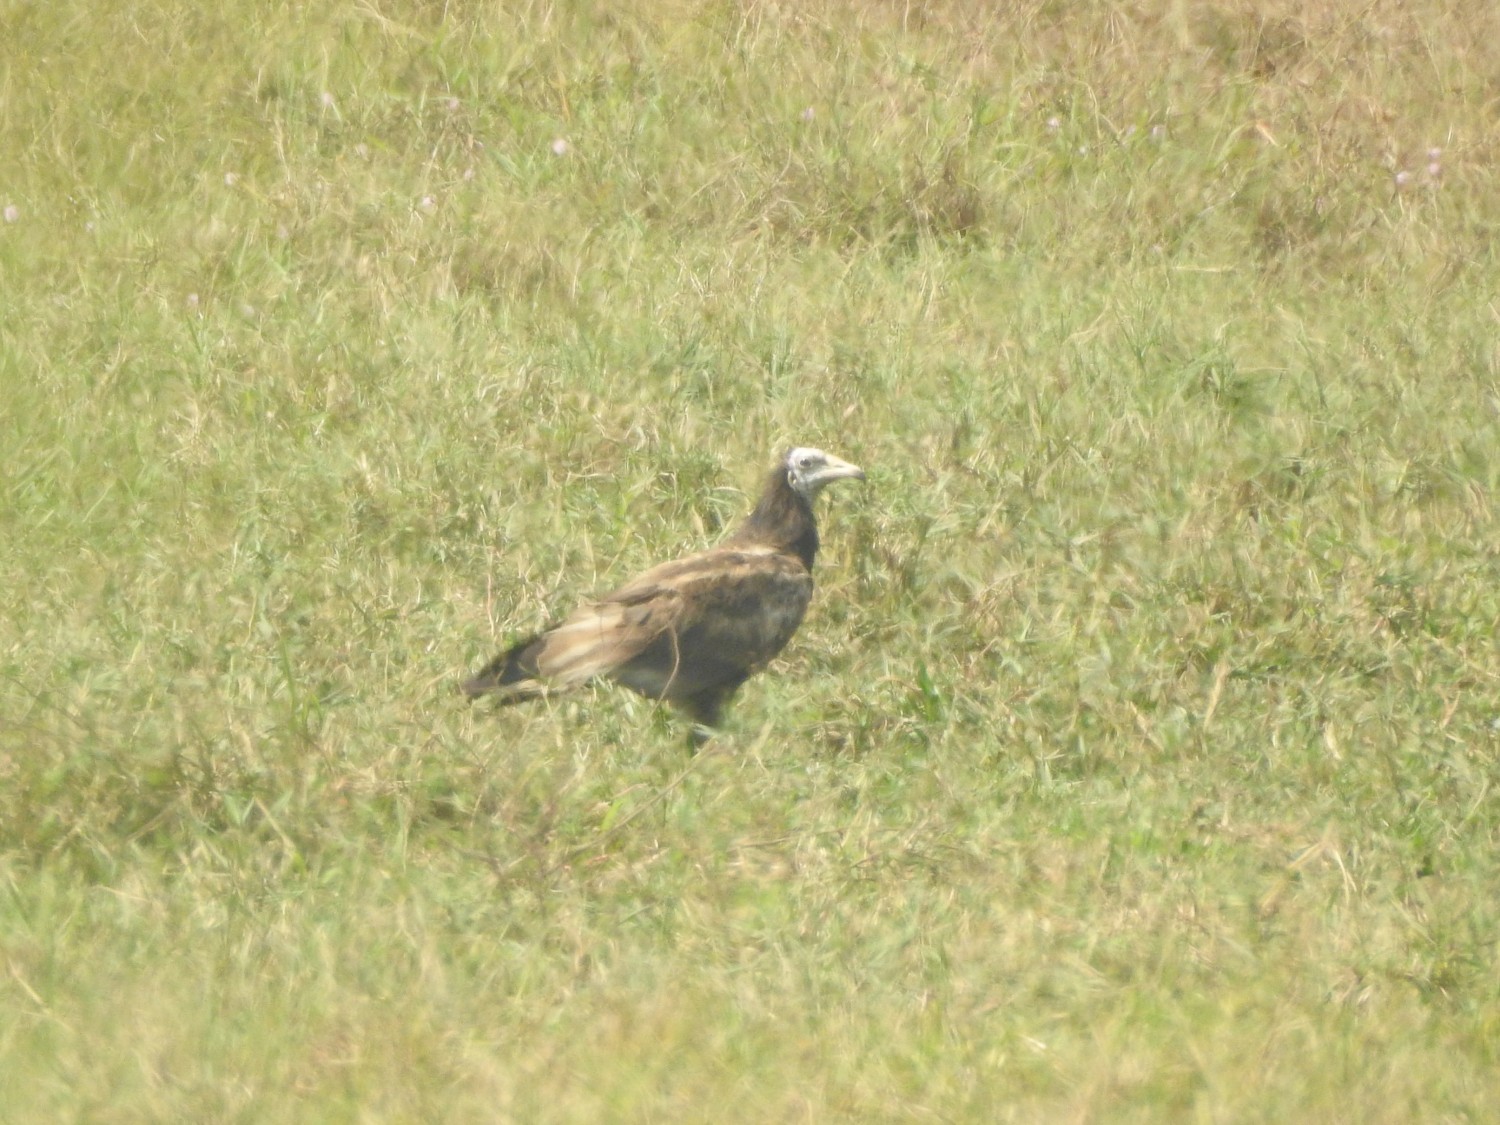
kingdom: Animalia
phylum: Chordata
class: Aves
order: Accipitriformes
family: Accipitridae
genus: Neophron
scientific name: Neophron percnopterus
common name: Egyptian vulture
